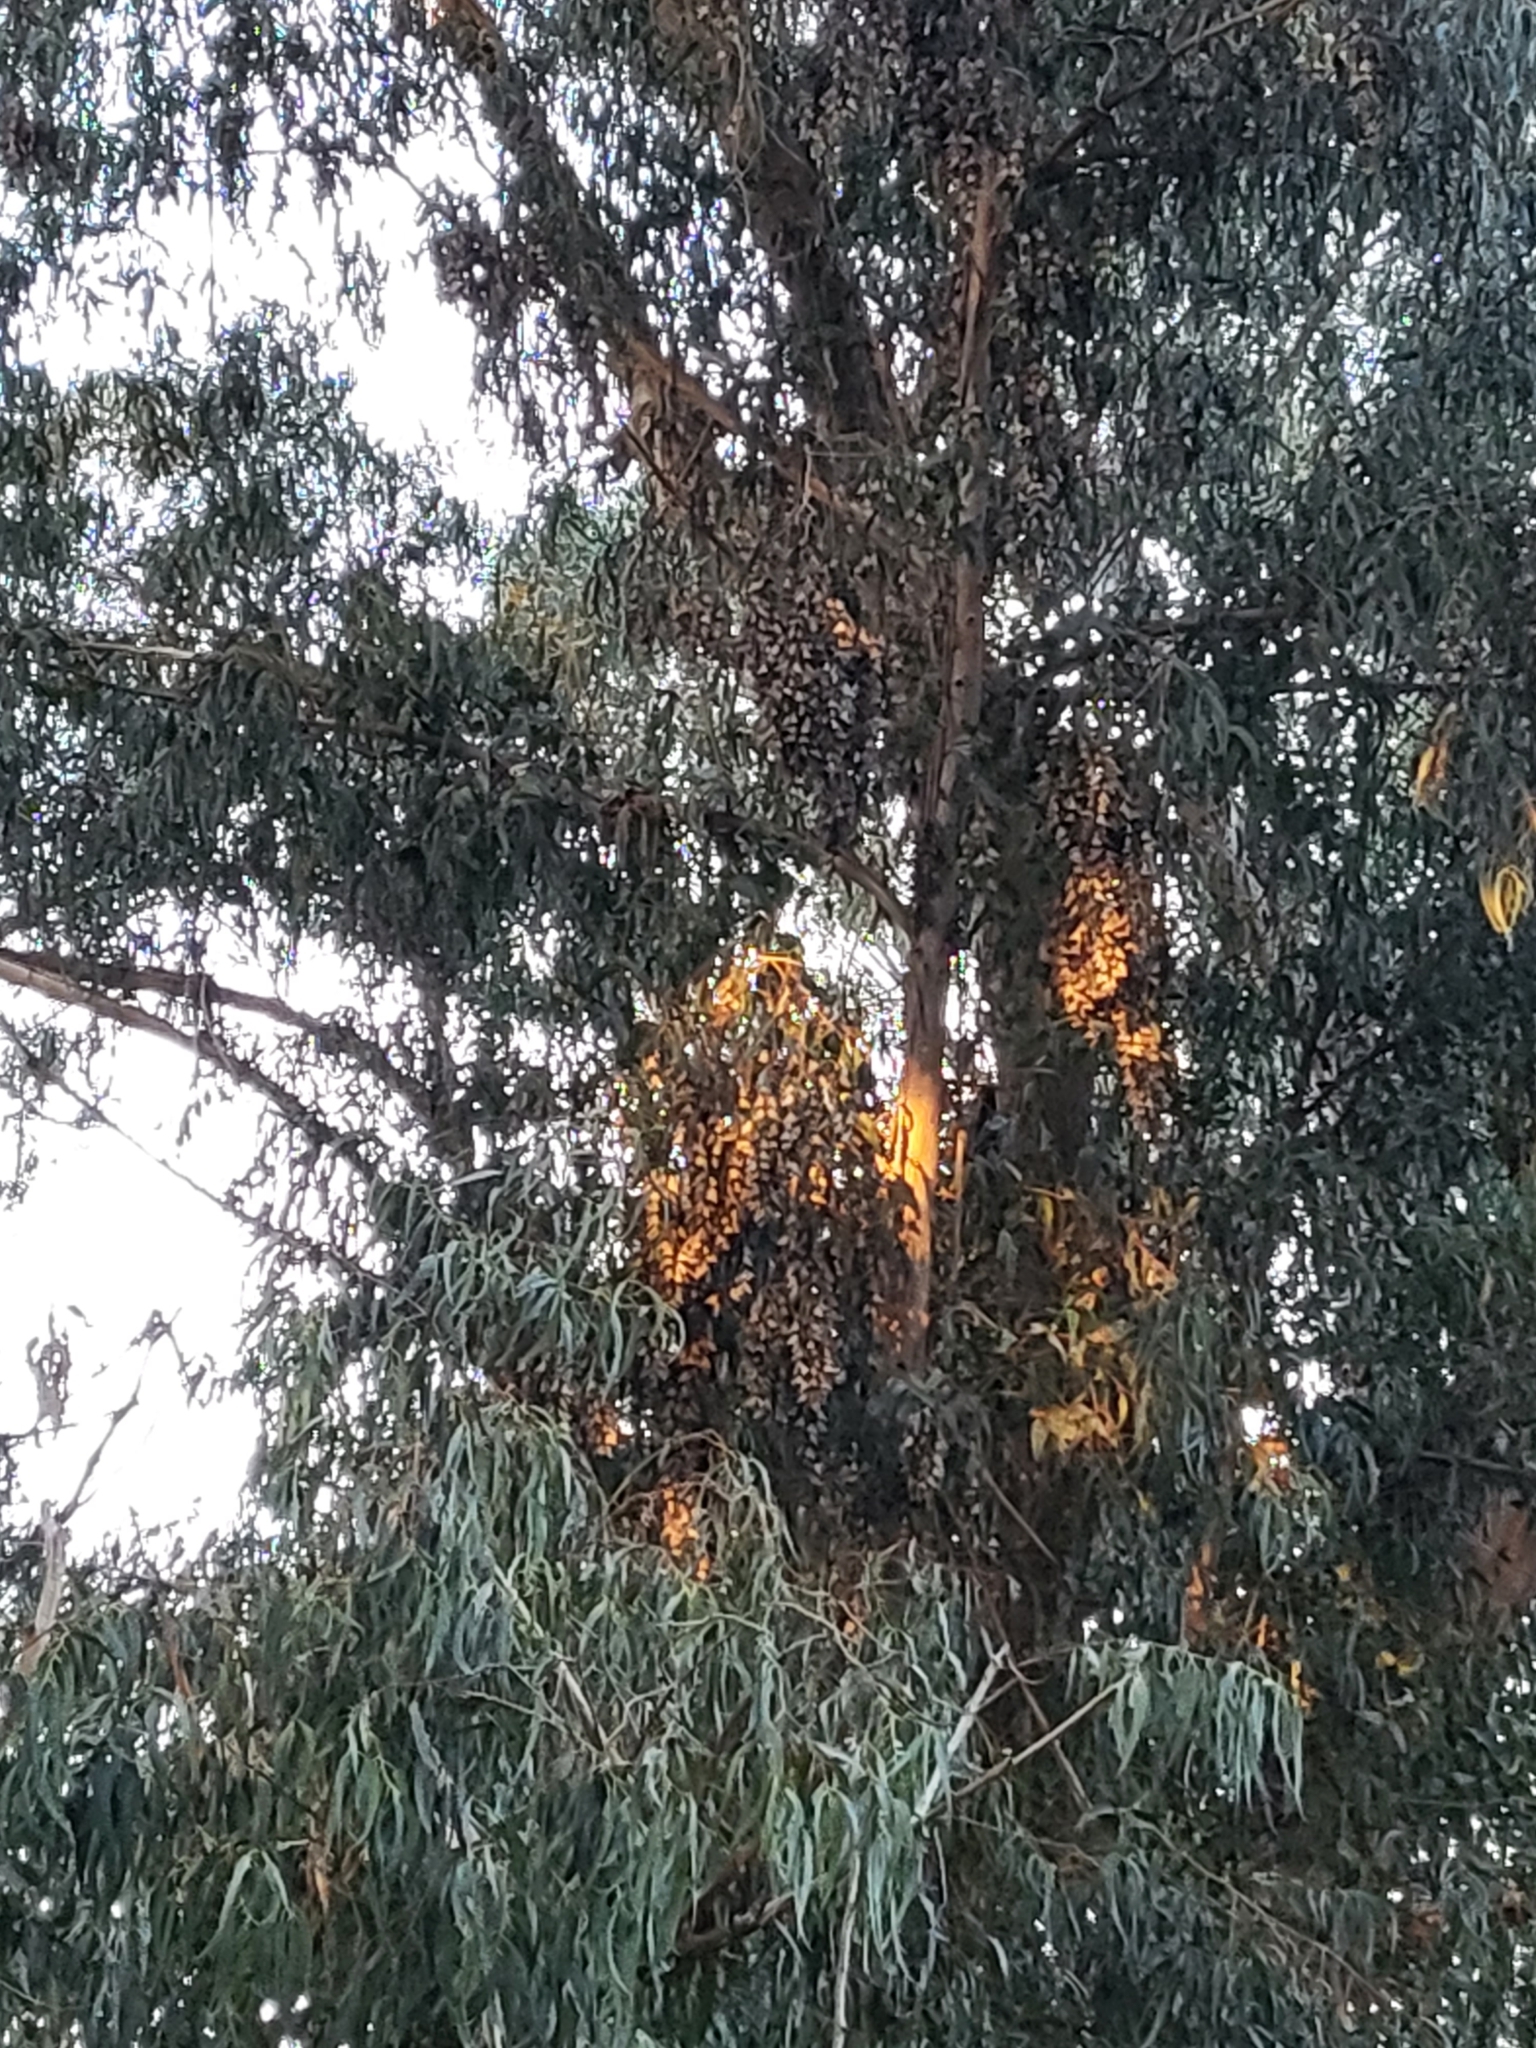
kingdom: Animalia
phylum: Arthropoda
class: Insecta
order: Lepidoptera
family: Nymphalidae
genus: Danaus
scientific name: Danaus plexippus
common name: Monarch
